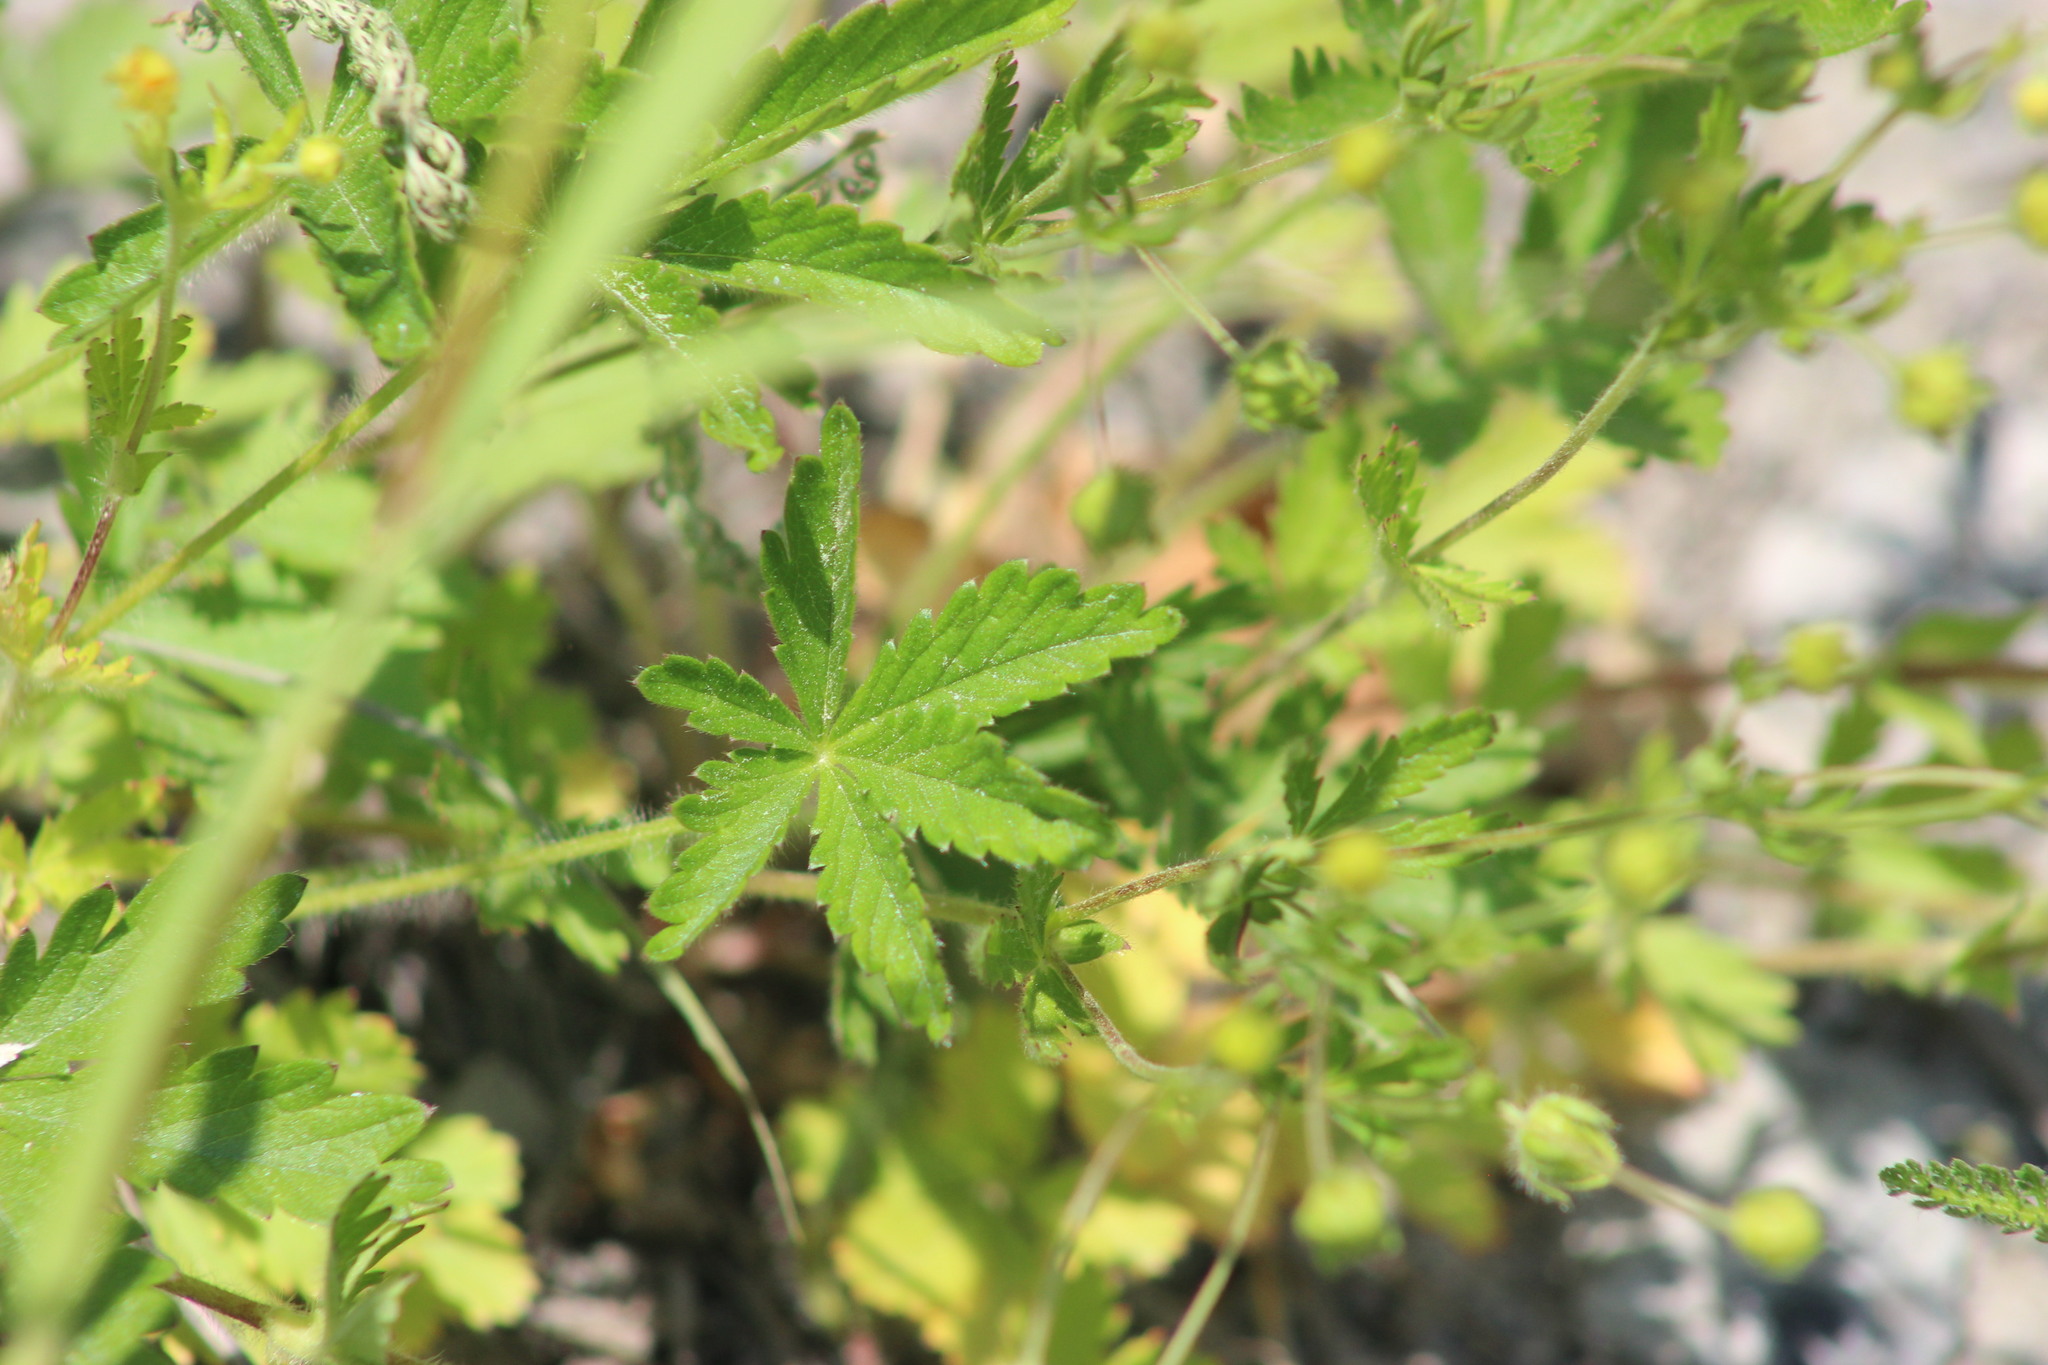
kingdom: Plantae
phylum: Tracheophyta
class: Magnoliopsida
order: Rosales
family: Rosaceae
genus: Potentilla
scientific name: Potentilla thuringiaca
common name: European cinquefoil
